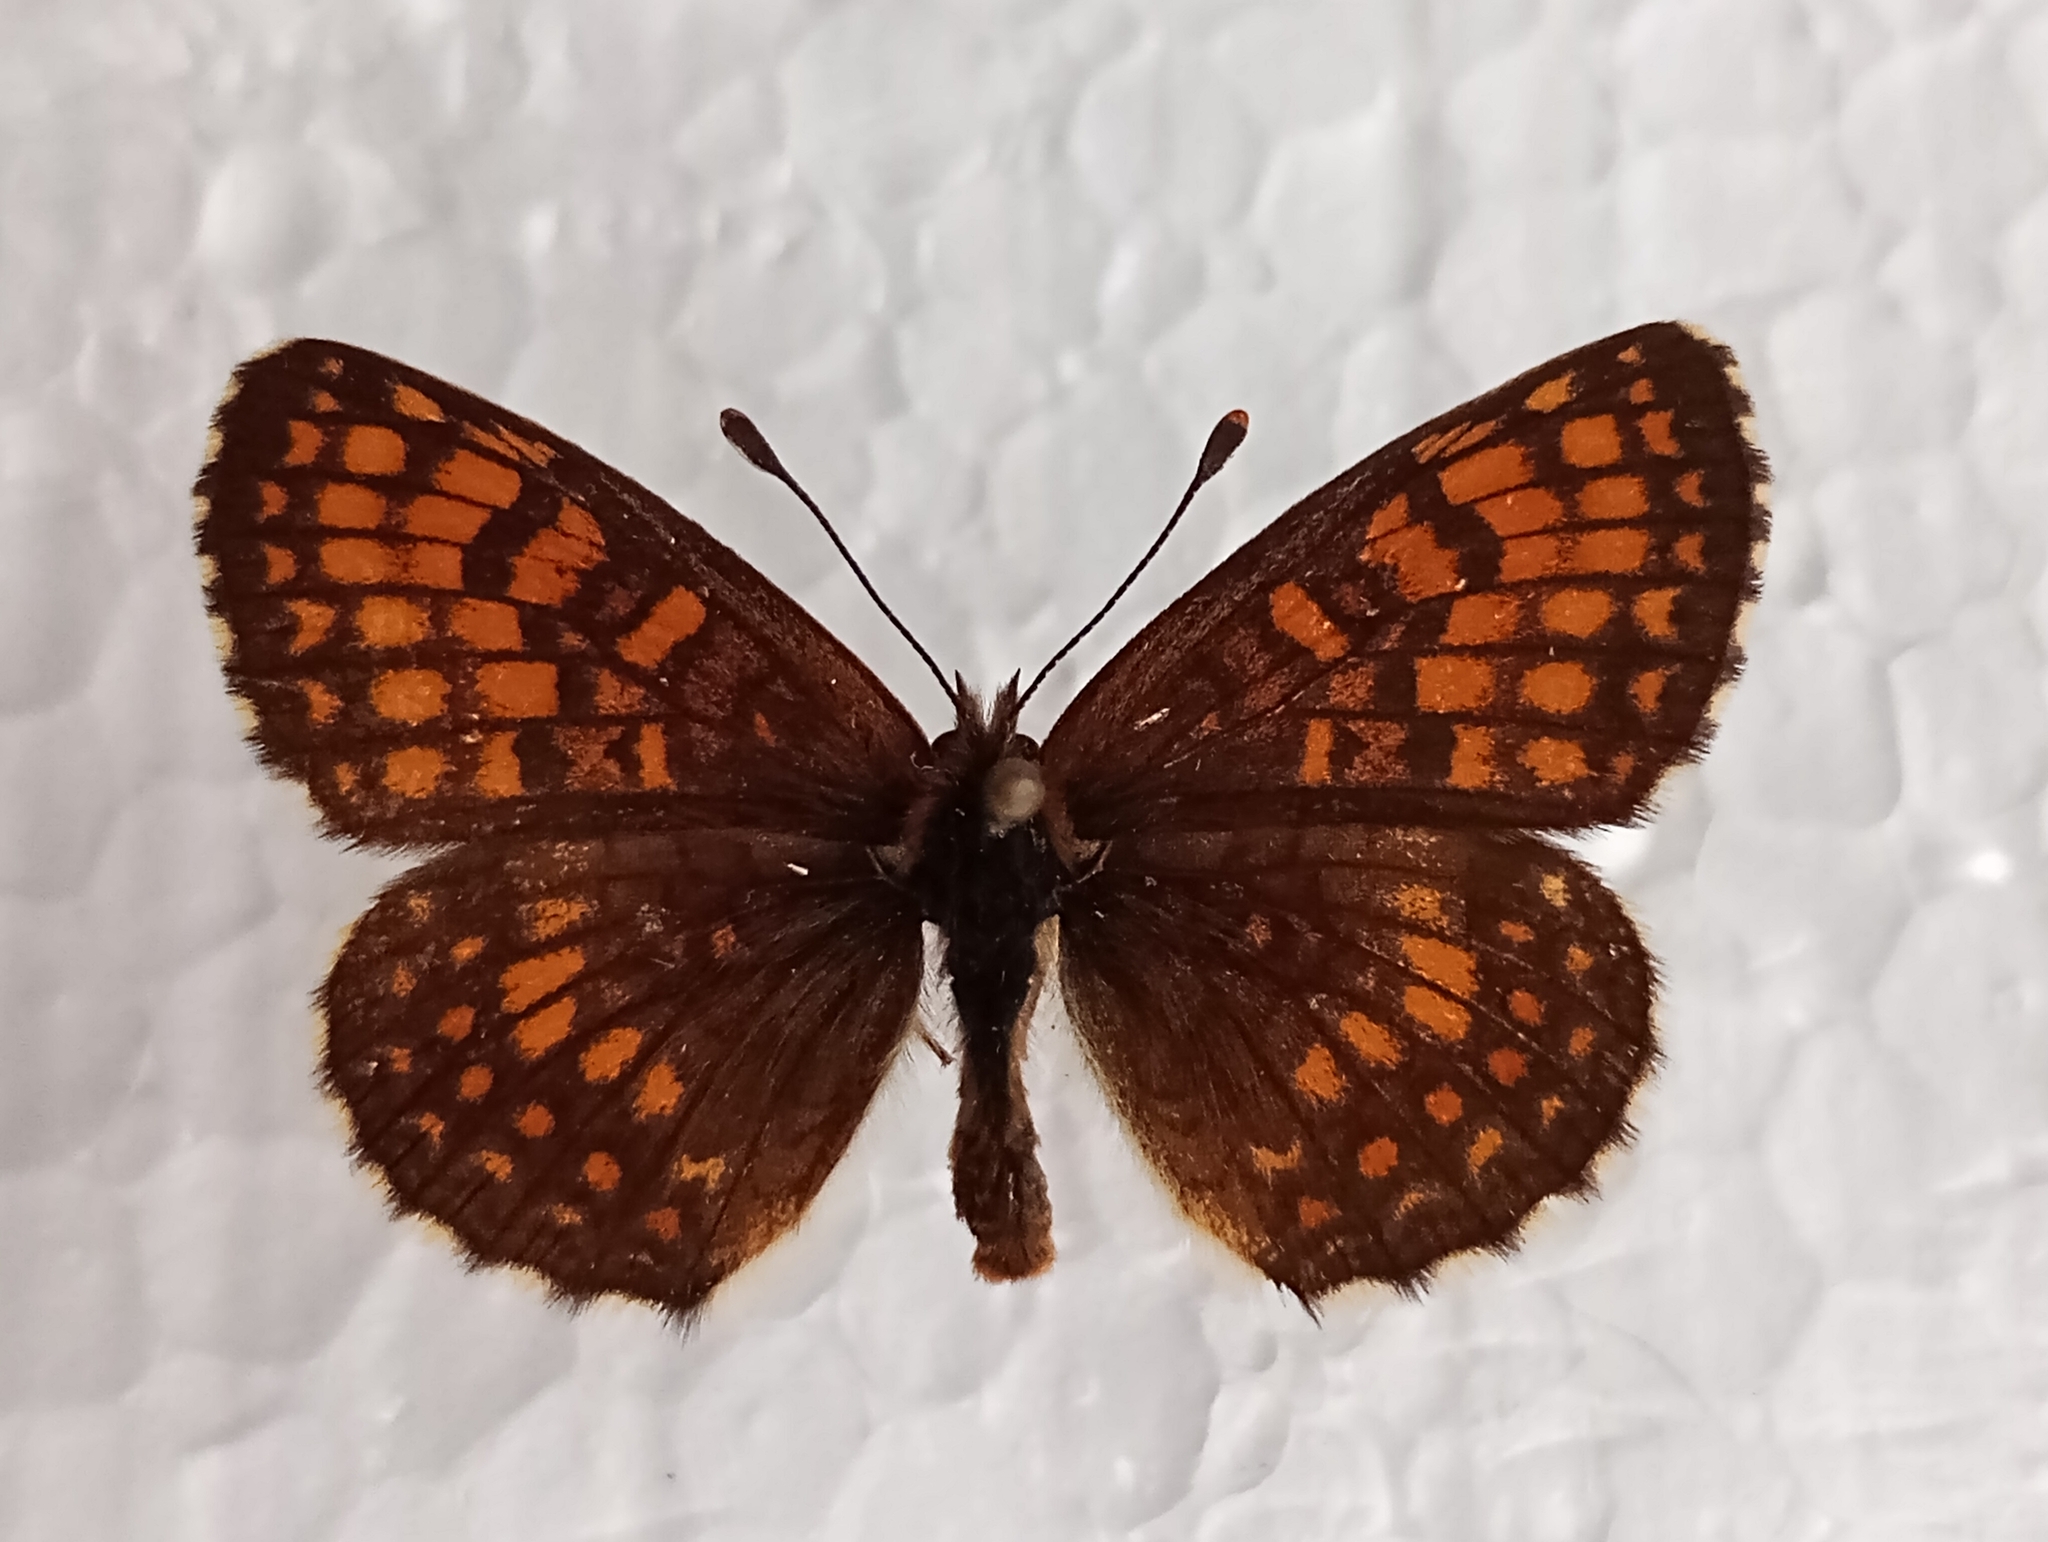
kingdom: Animalia
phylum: Arthropoda
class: Insecta
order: Lepidoptera
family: Nymphalidae
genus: Melitaea
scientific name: Melitaea athalia
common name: Heath fritillary
